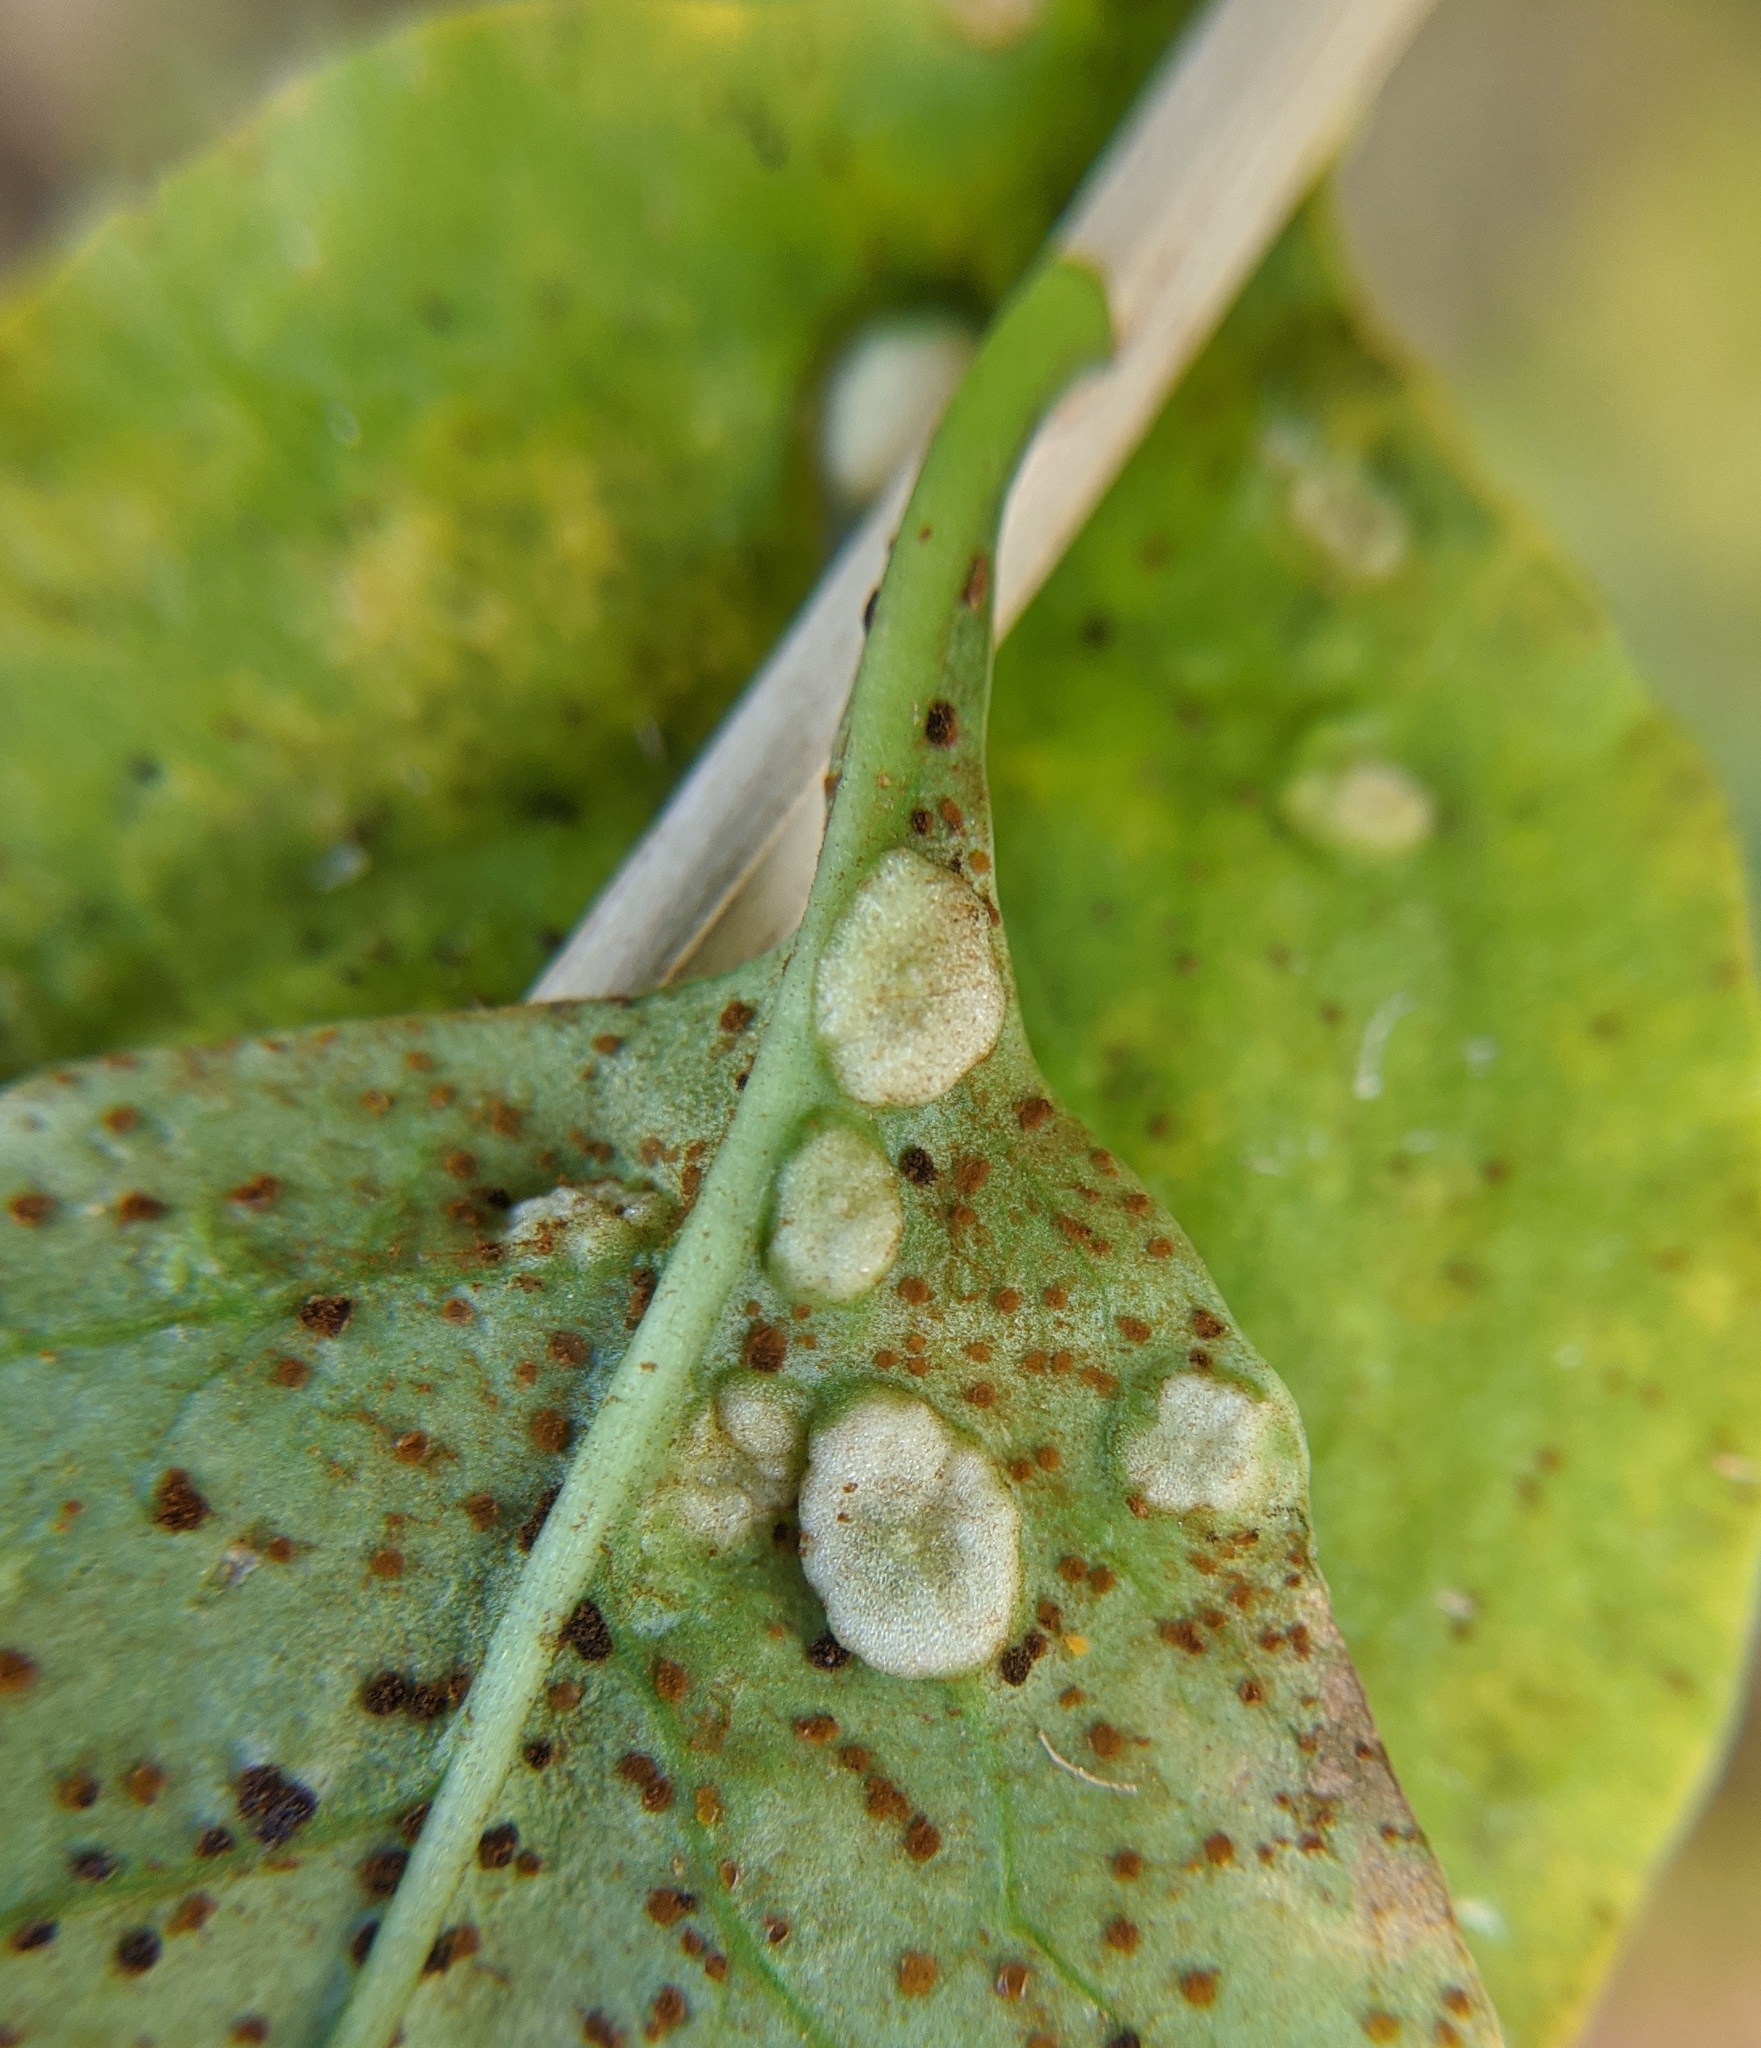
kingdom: Animalia
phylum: Arthropoda
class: Arachnida
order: Trombidiformes
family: Eriophyidae
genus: Aceria
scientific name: Aceria kuko
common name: Goji gall mite
